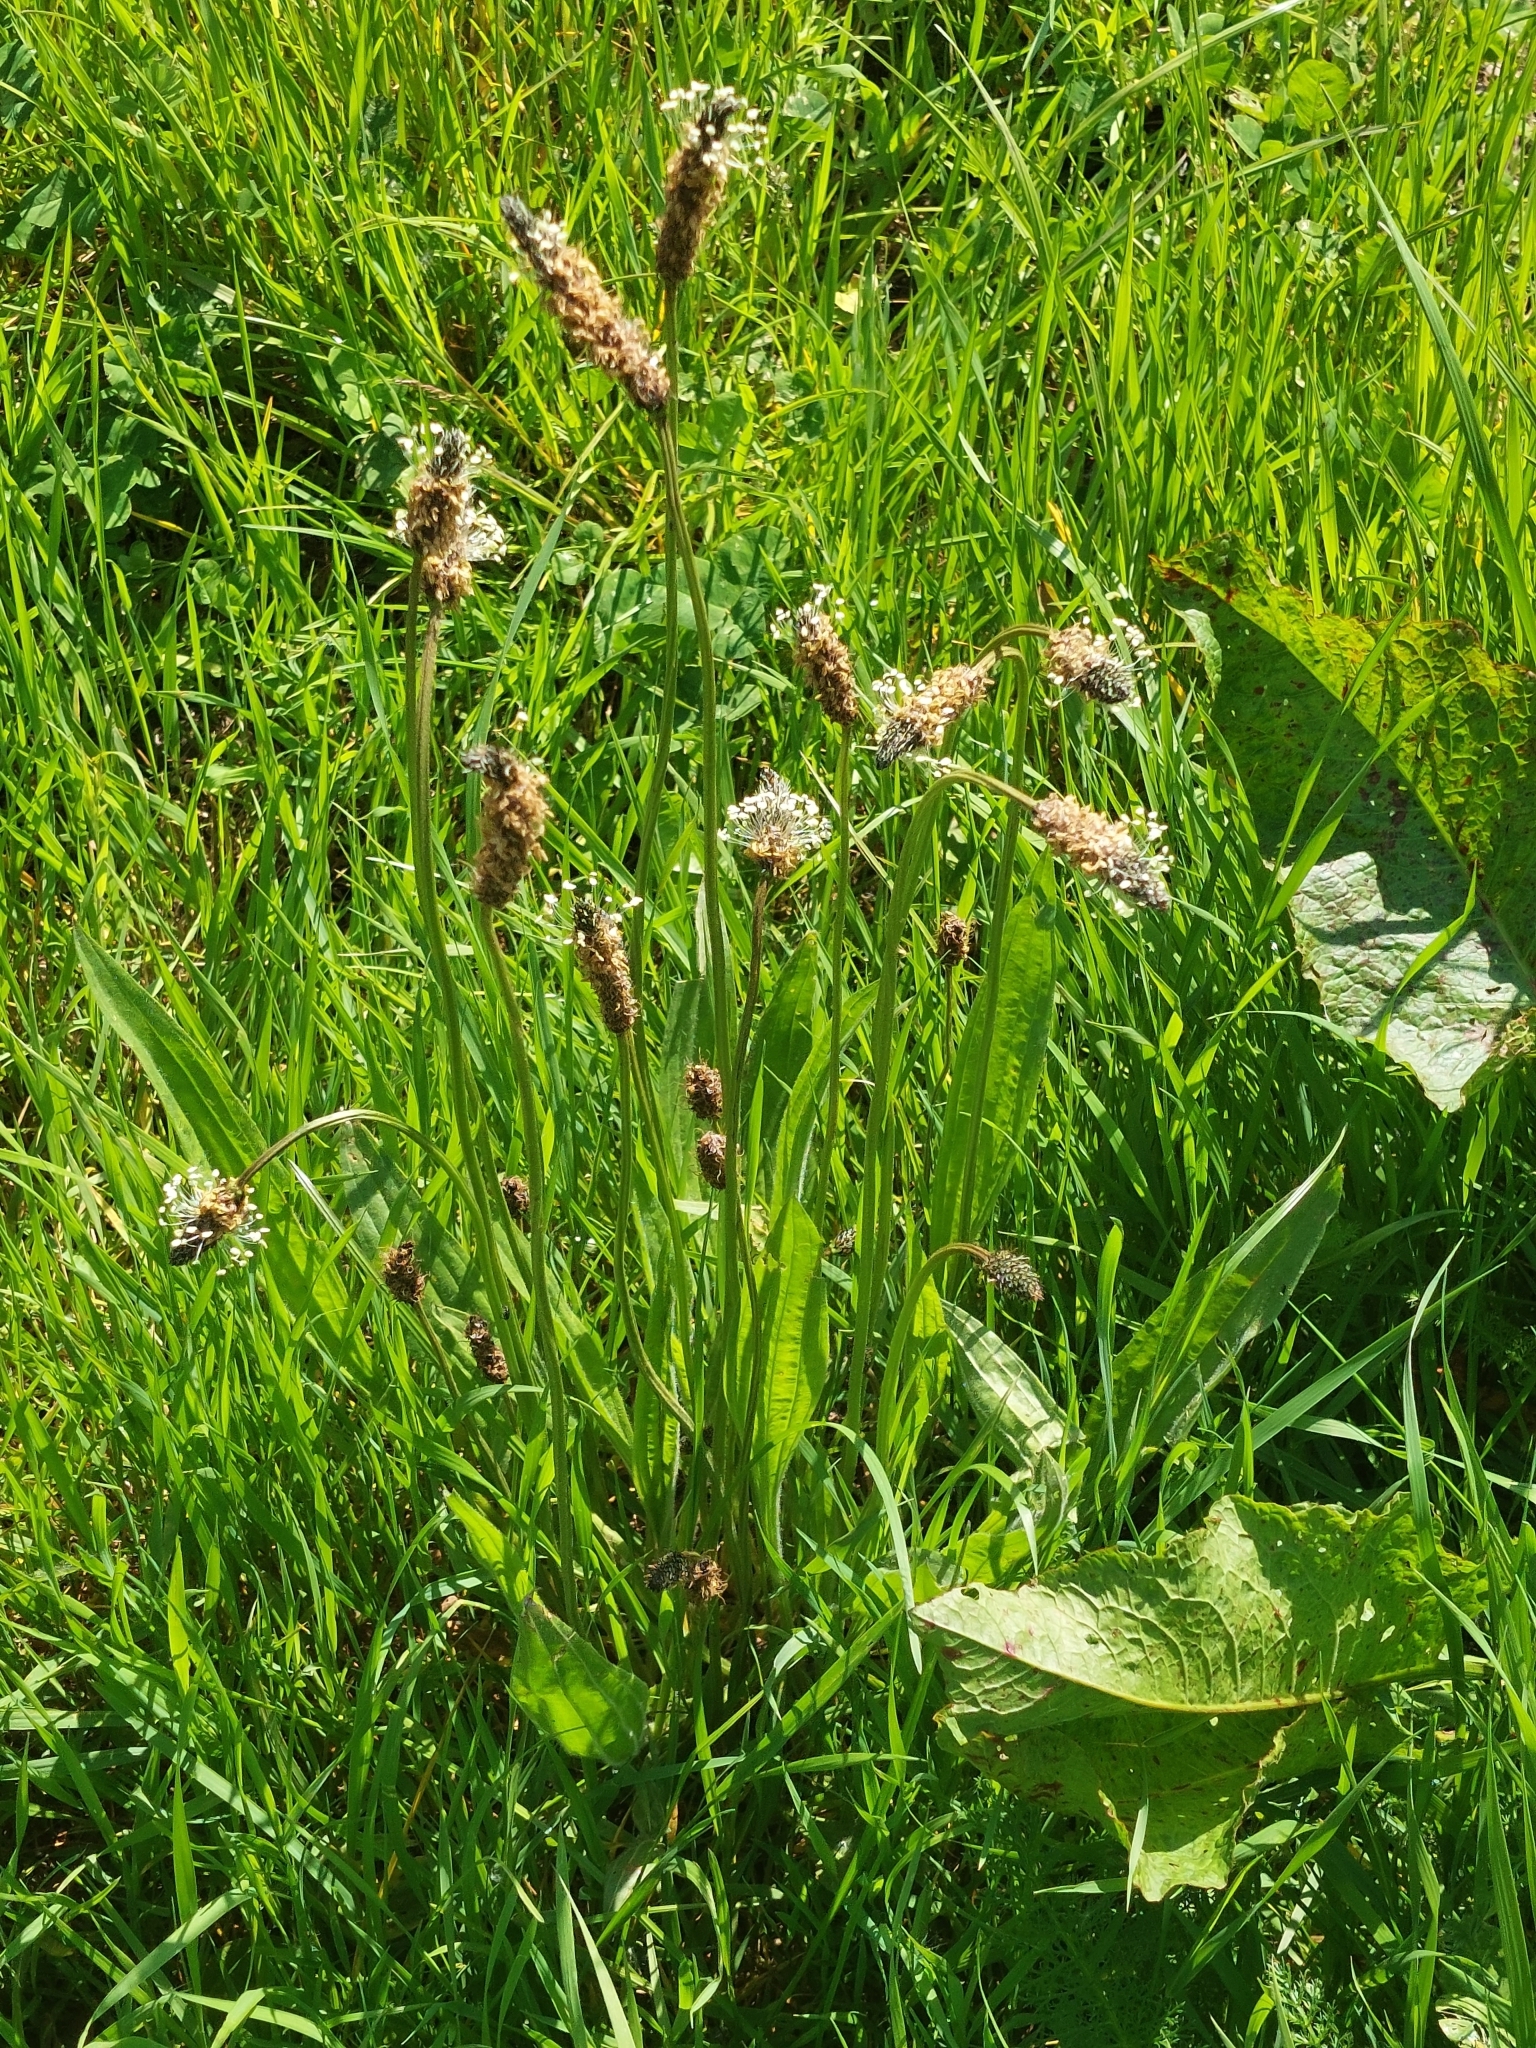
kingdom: Plantae
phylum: Tracheophyta
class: Magnoliopsida
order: Lamiales
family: Plantaginaceae
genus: Plantago
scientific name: Plantago lanceolata
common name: Ribwort plantain
